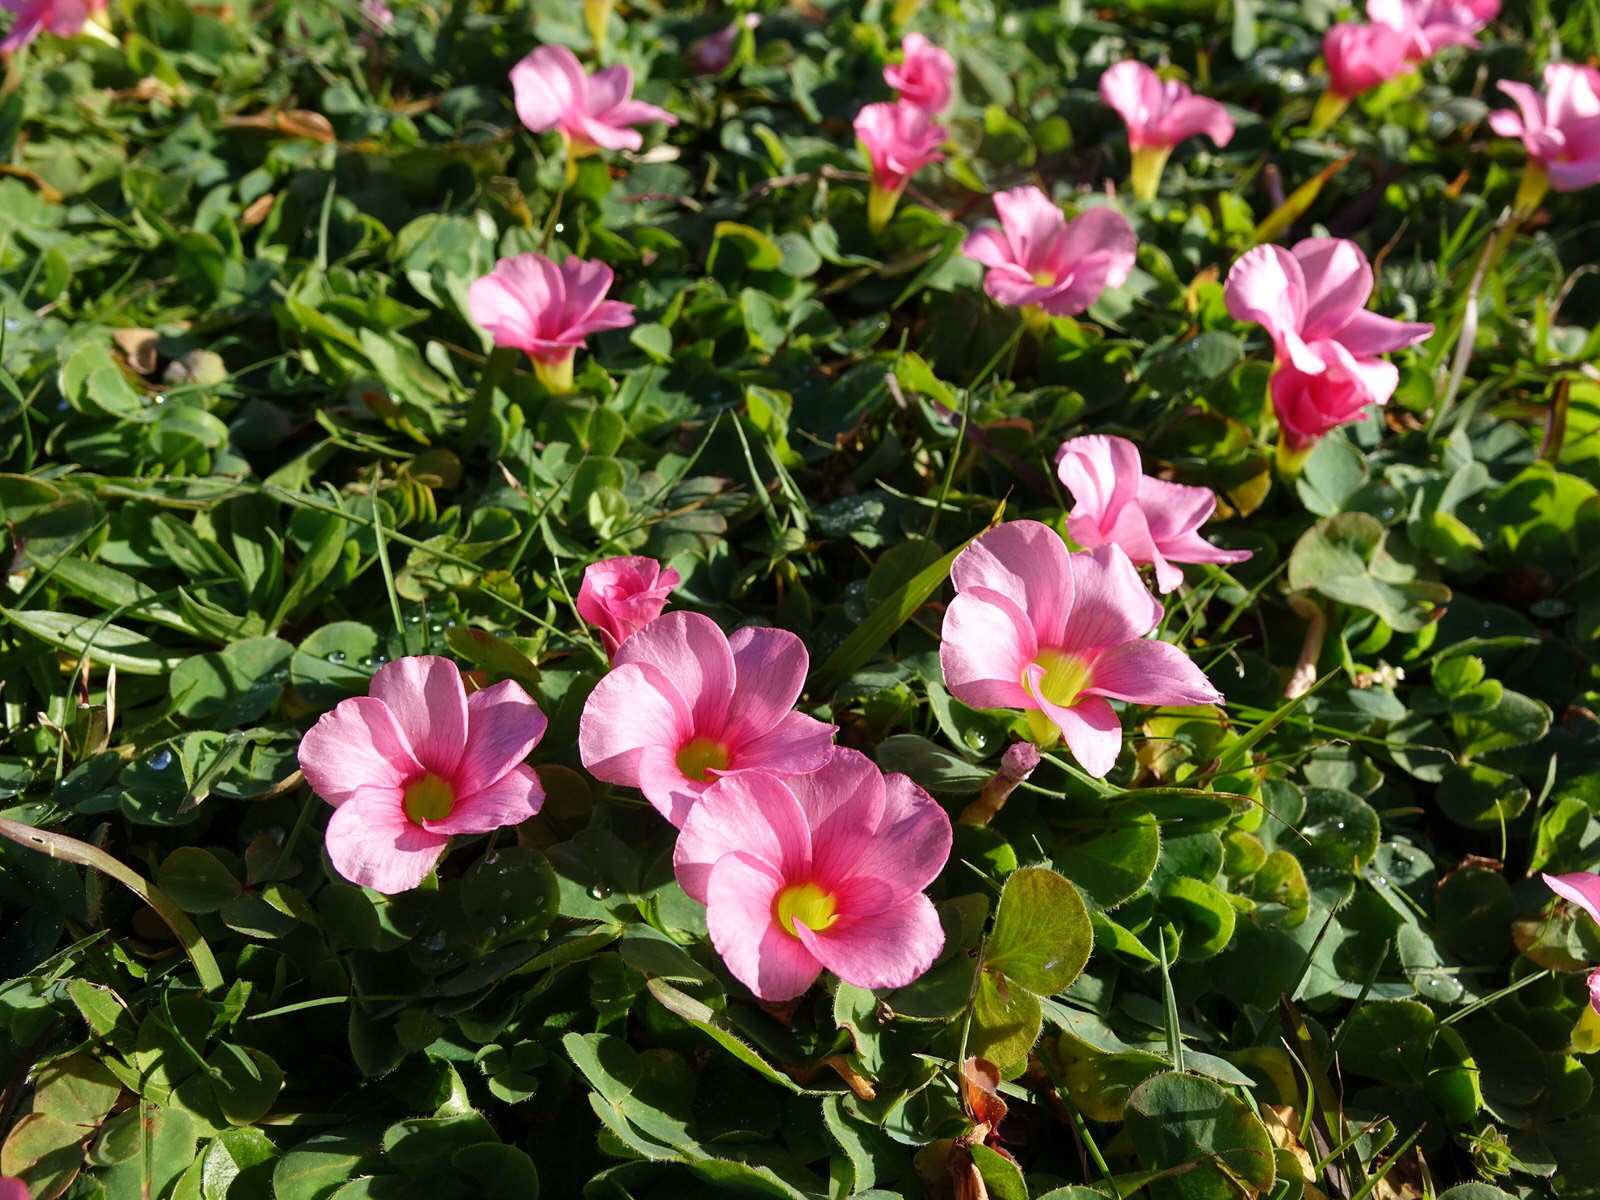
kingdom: Plantae
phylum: Tracheophyta
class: Magnoliopsida
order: Oxalidales
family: Oxalidaceae
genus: Oxalis
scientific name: Oxalis purpurea
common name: Purple woodsorrel
